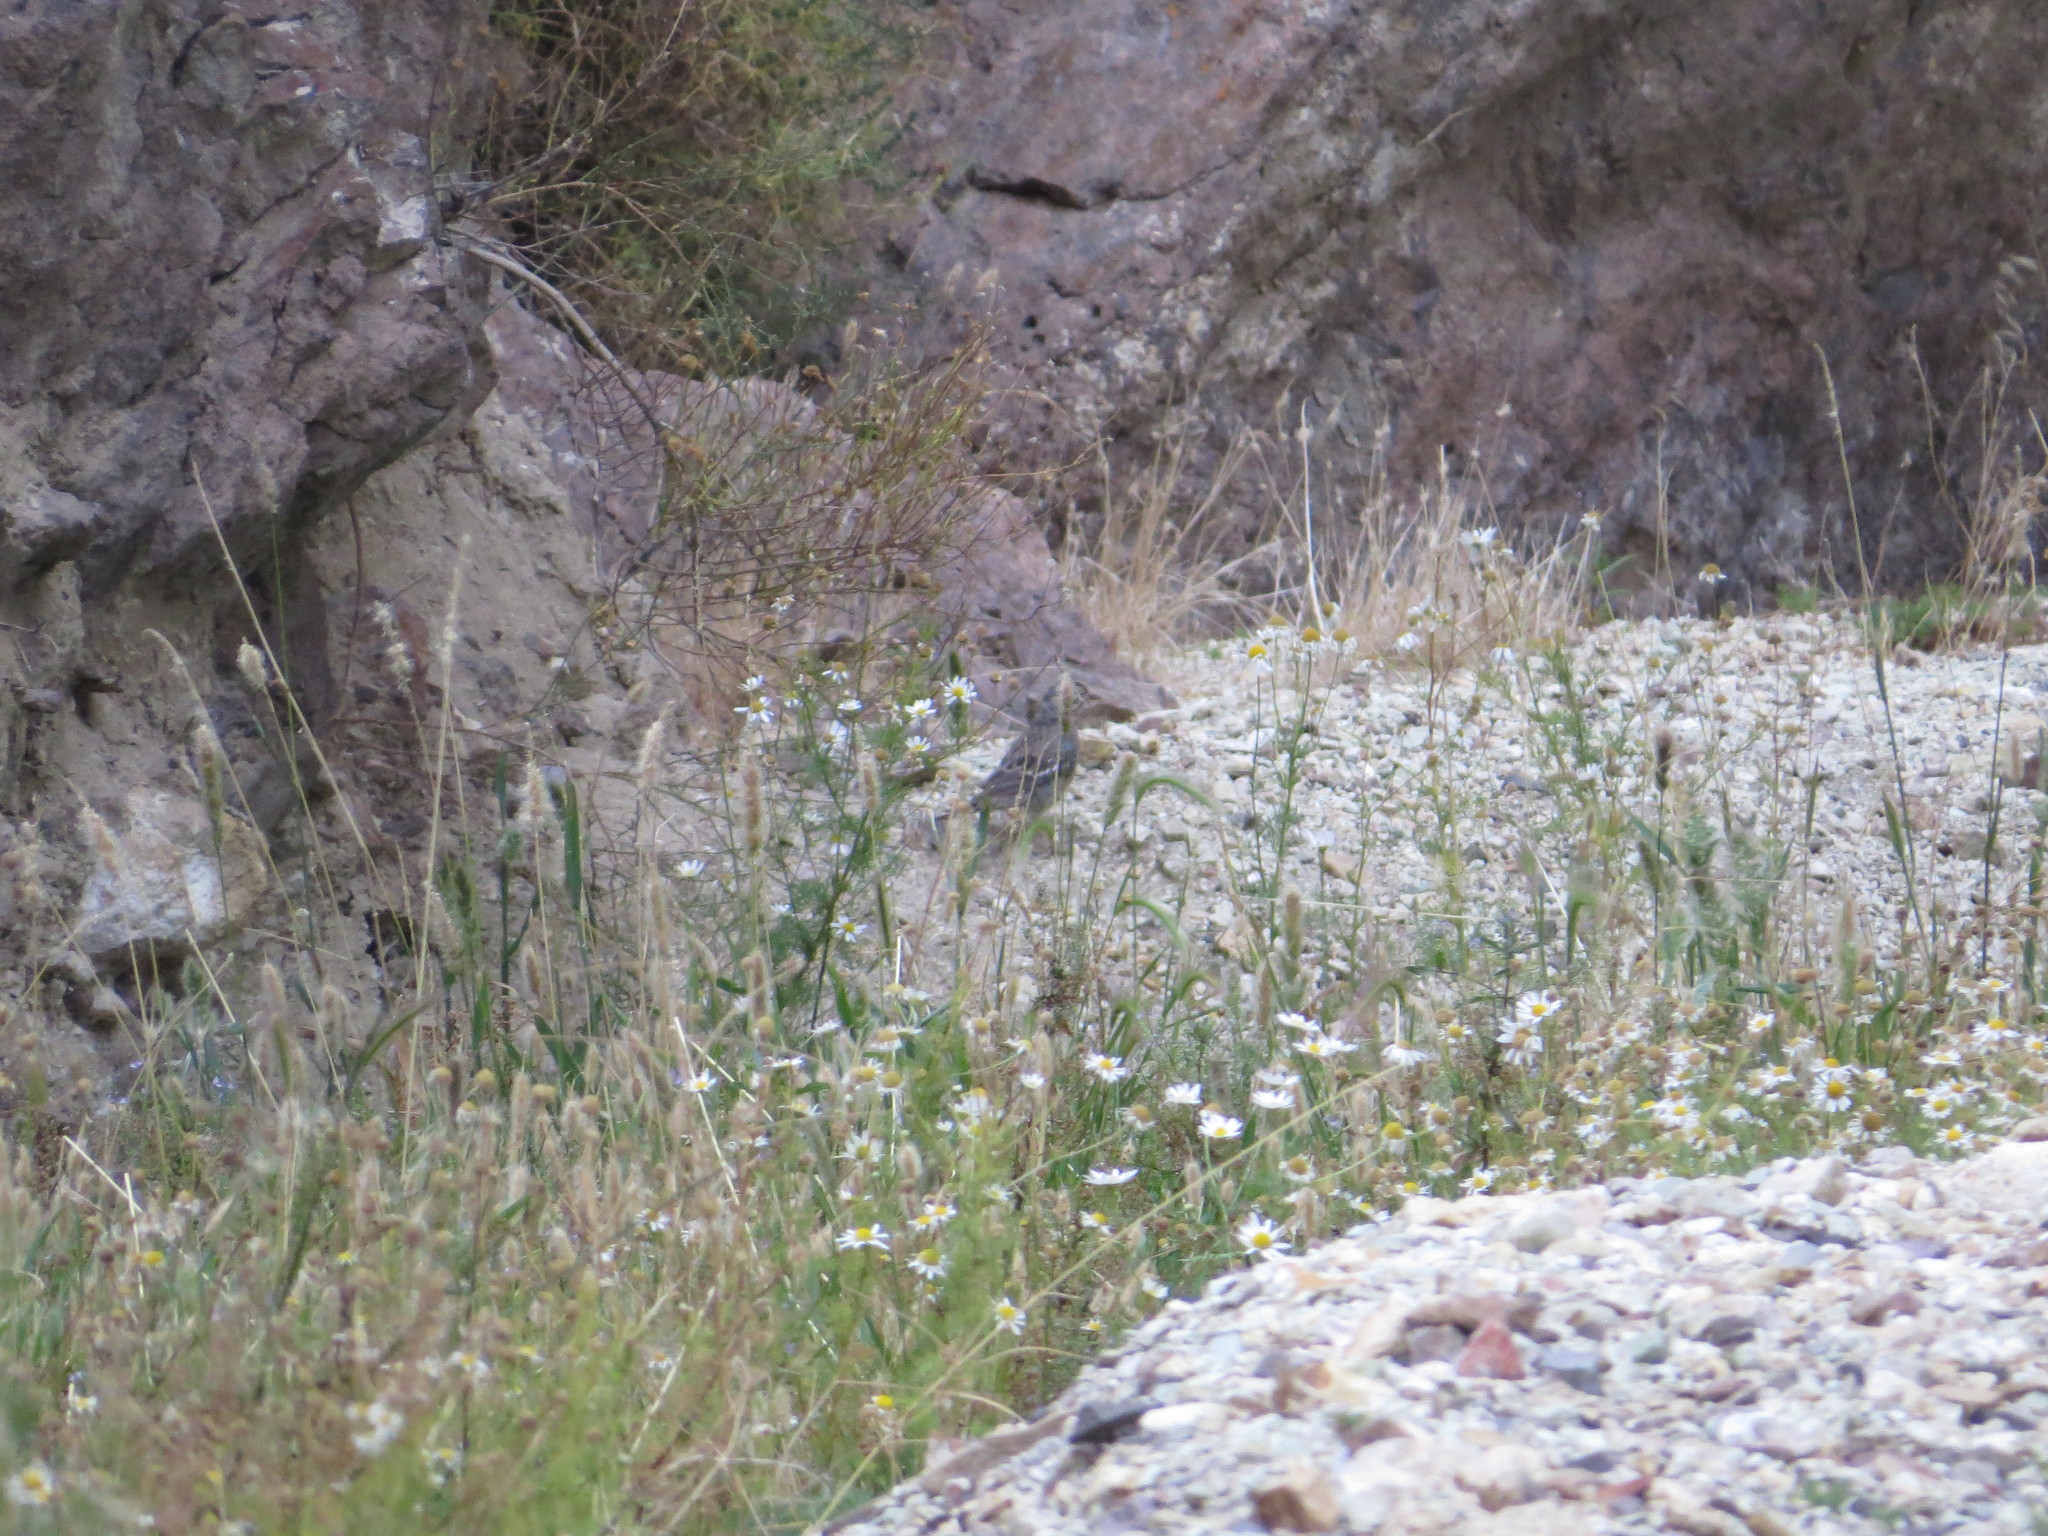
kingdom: Animalia
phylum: Chordata
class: Aves
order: Passeriformes
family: Thraupidae
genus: Rhopospina
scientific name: Rhopospina fruticeti
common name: Mourning sierra finch
